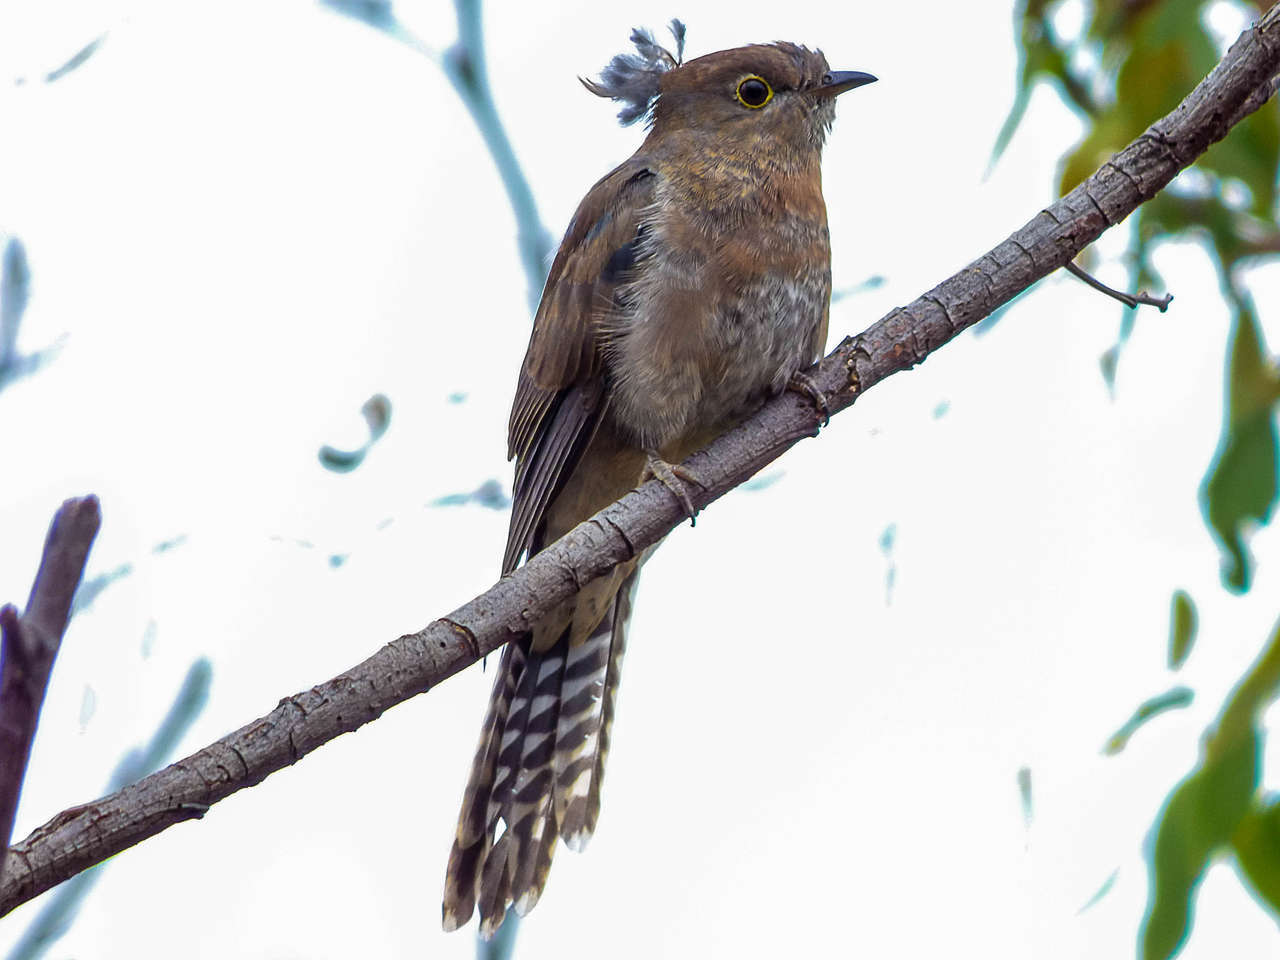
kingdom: Animalia
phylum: Chordata
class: Aves
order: Cuculiformes
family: Cuculidae
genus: Cacomantis
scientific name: Cacomantis flabelliformis
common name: Fan-tailed cuckoo
